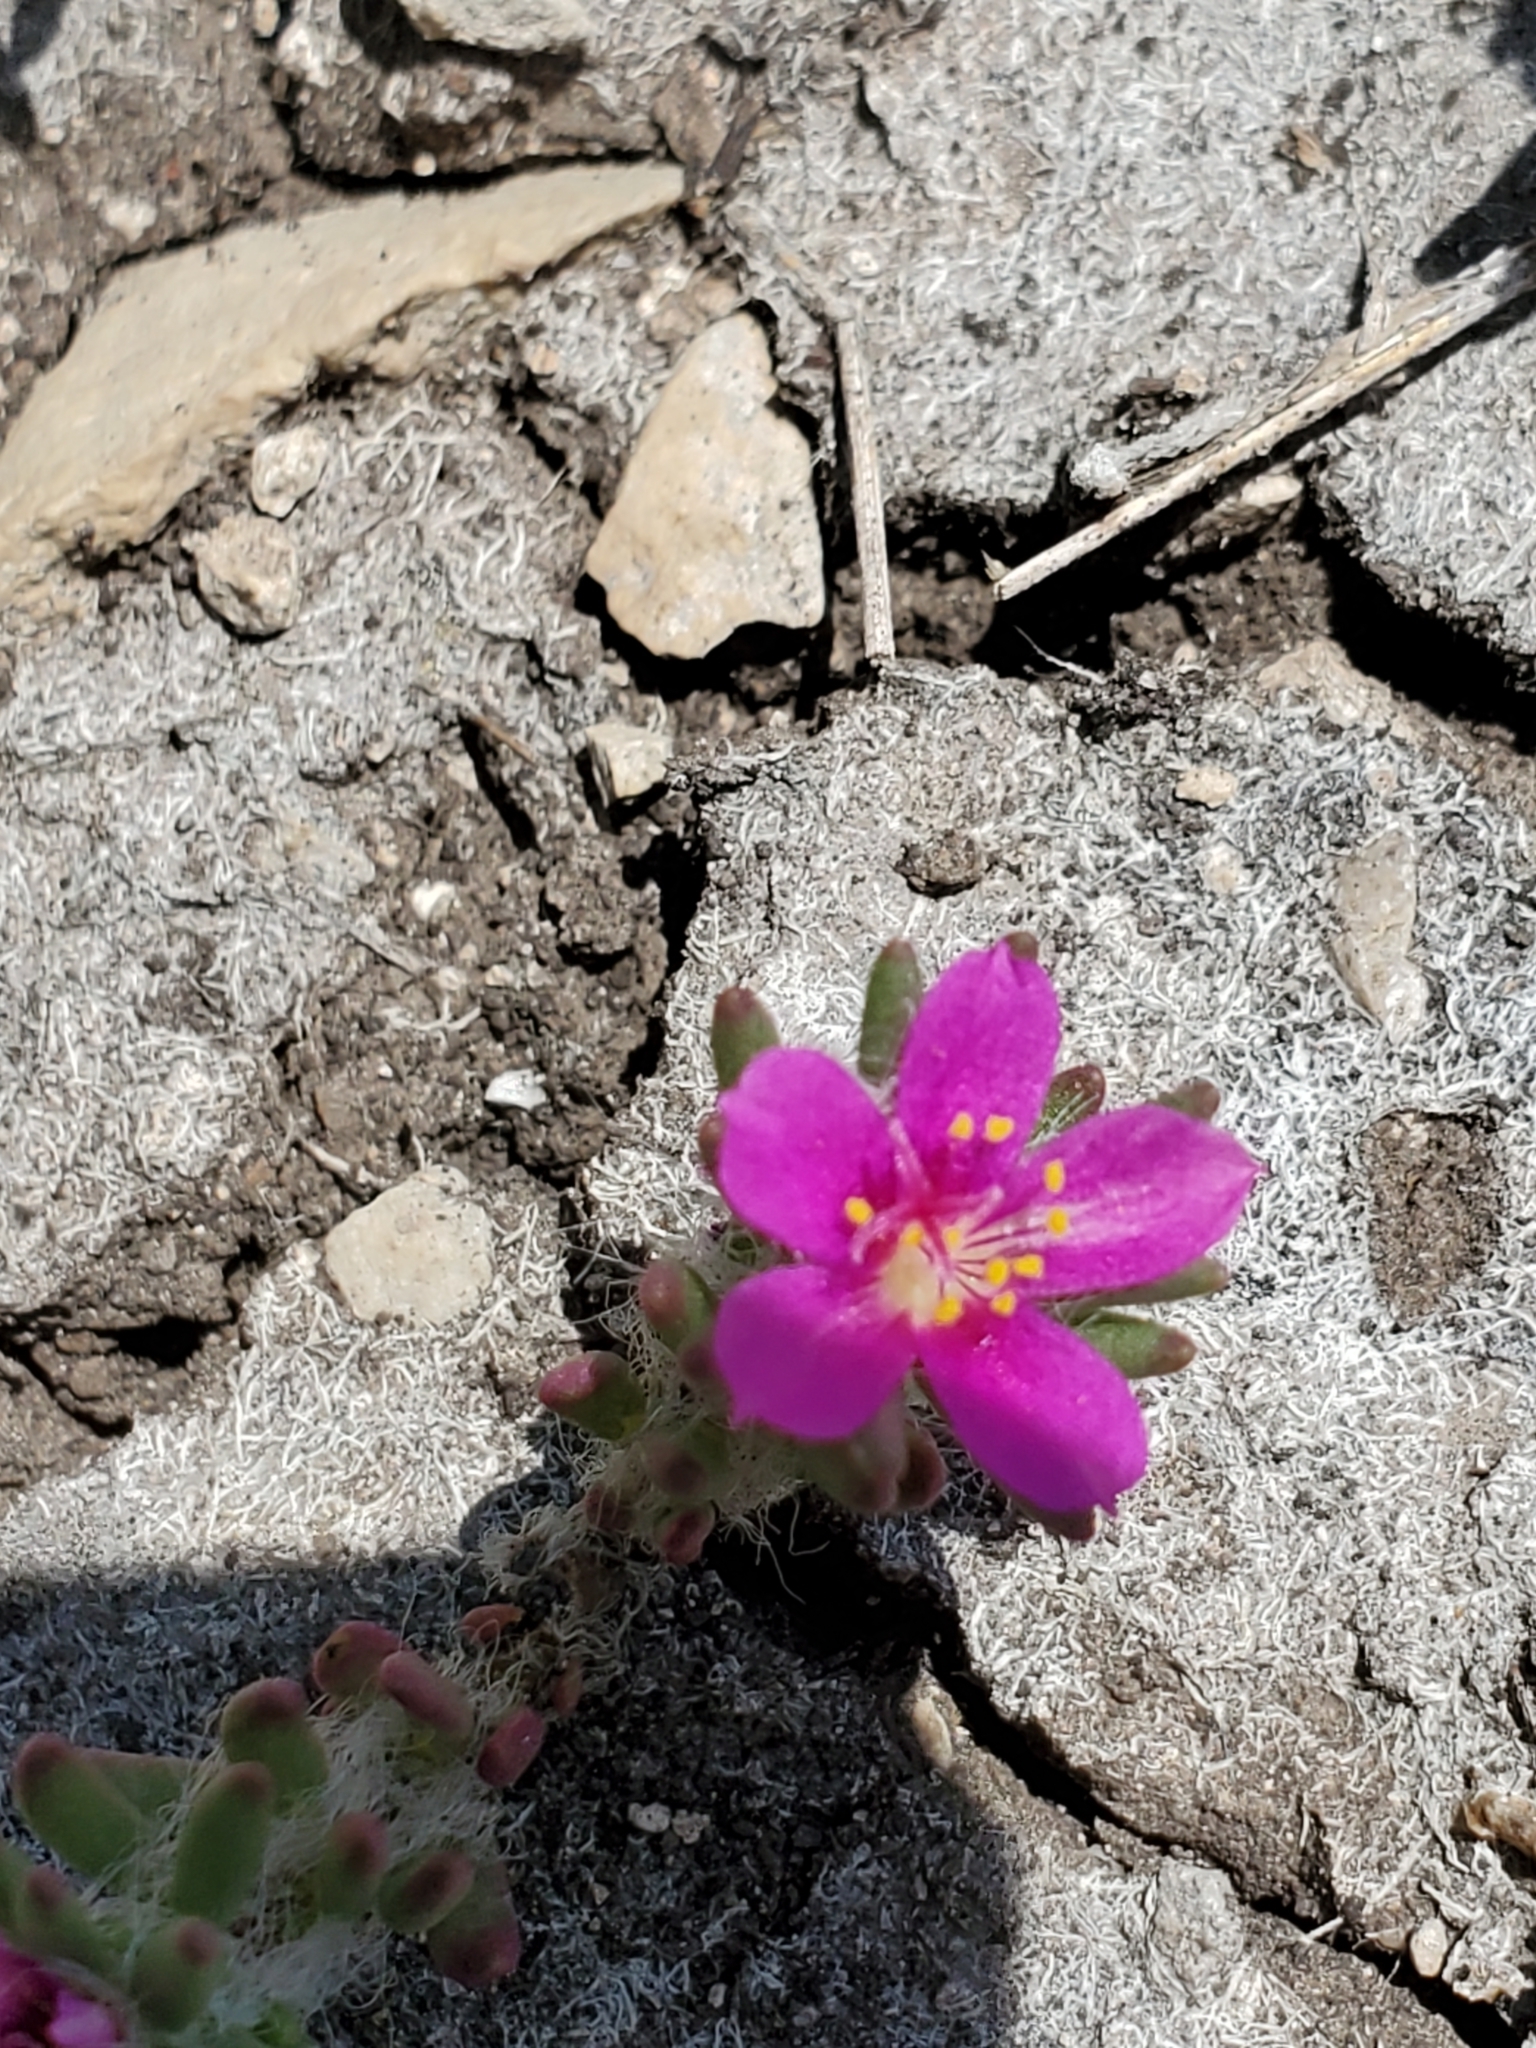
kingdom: Plantae
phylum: Tracheophyta
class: Magnoliopsida
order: Caryophyllales
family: Portulacaceae
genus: Portulaca
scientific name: Portulaca pilosa
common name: Kiss me quick
